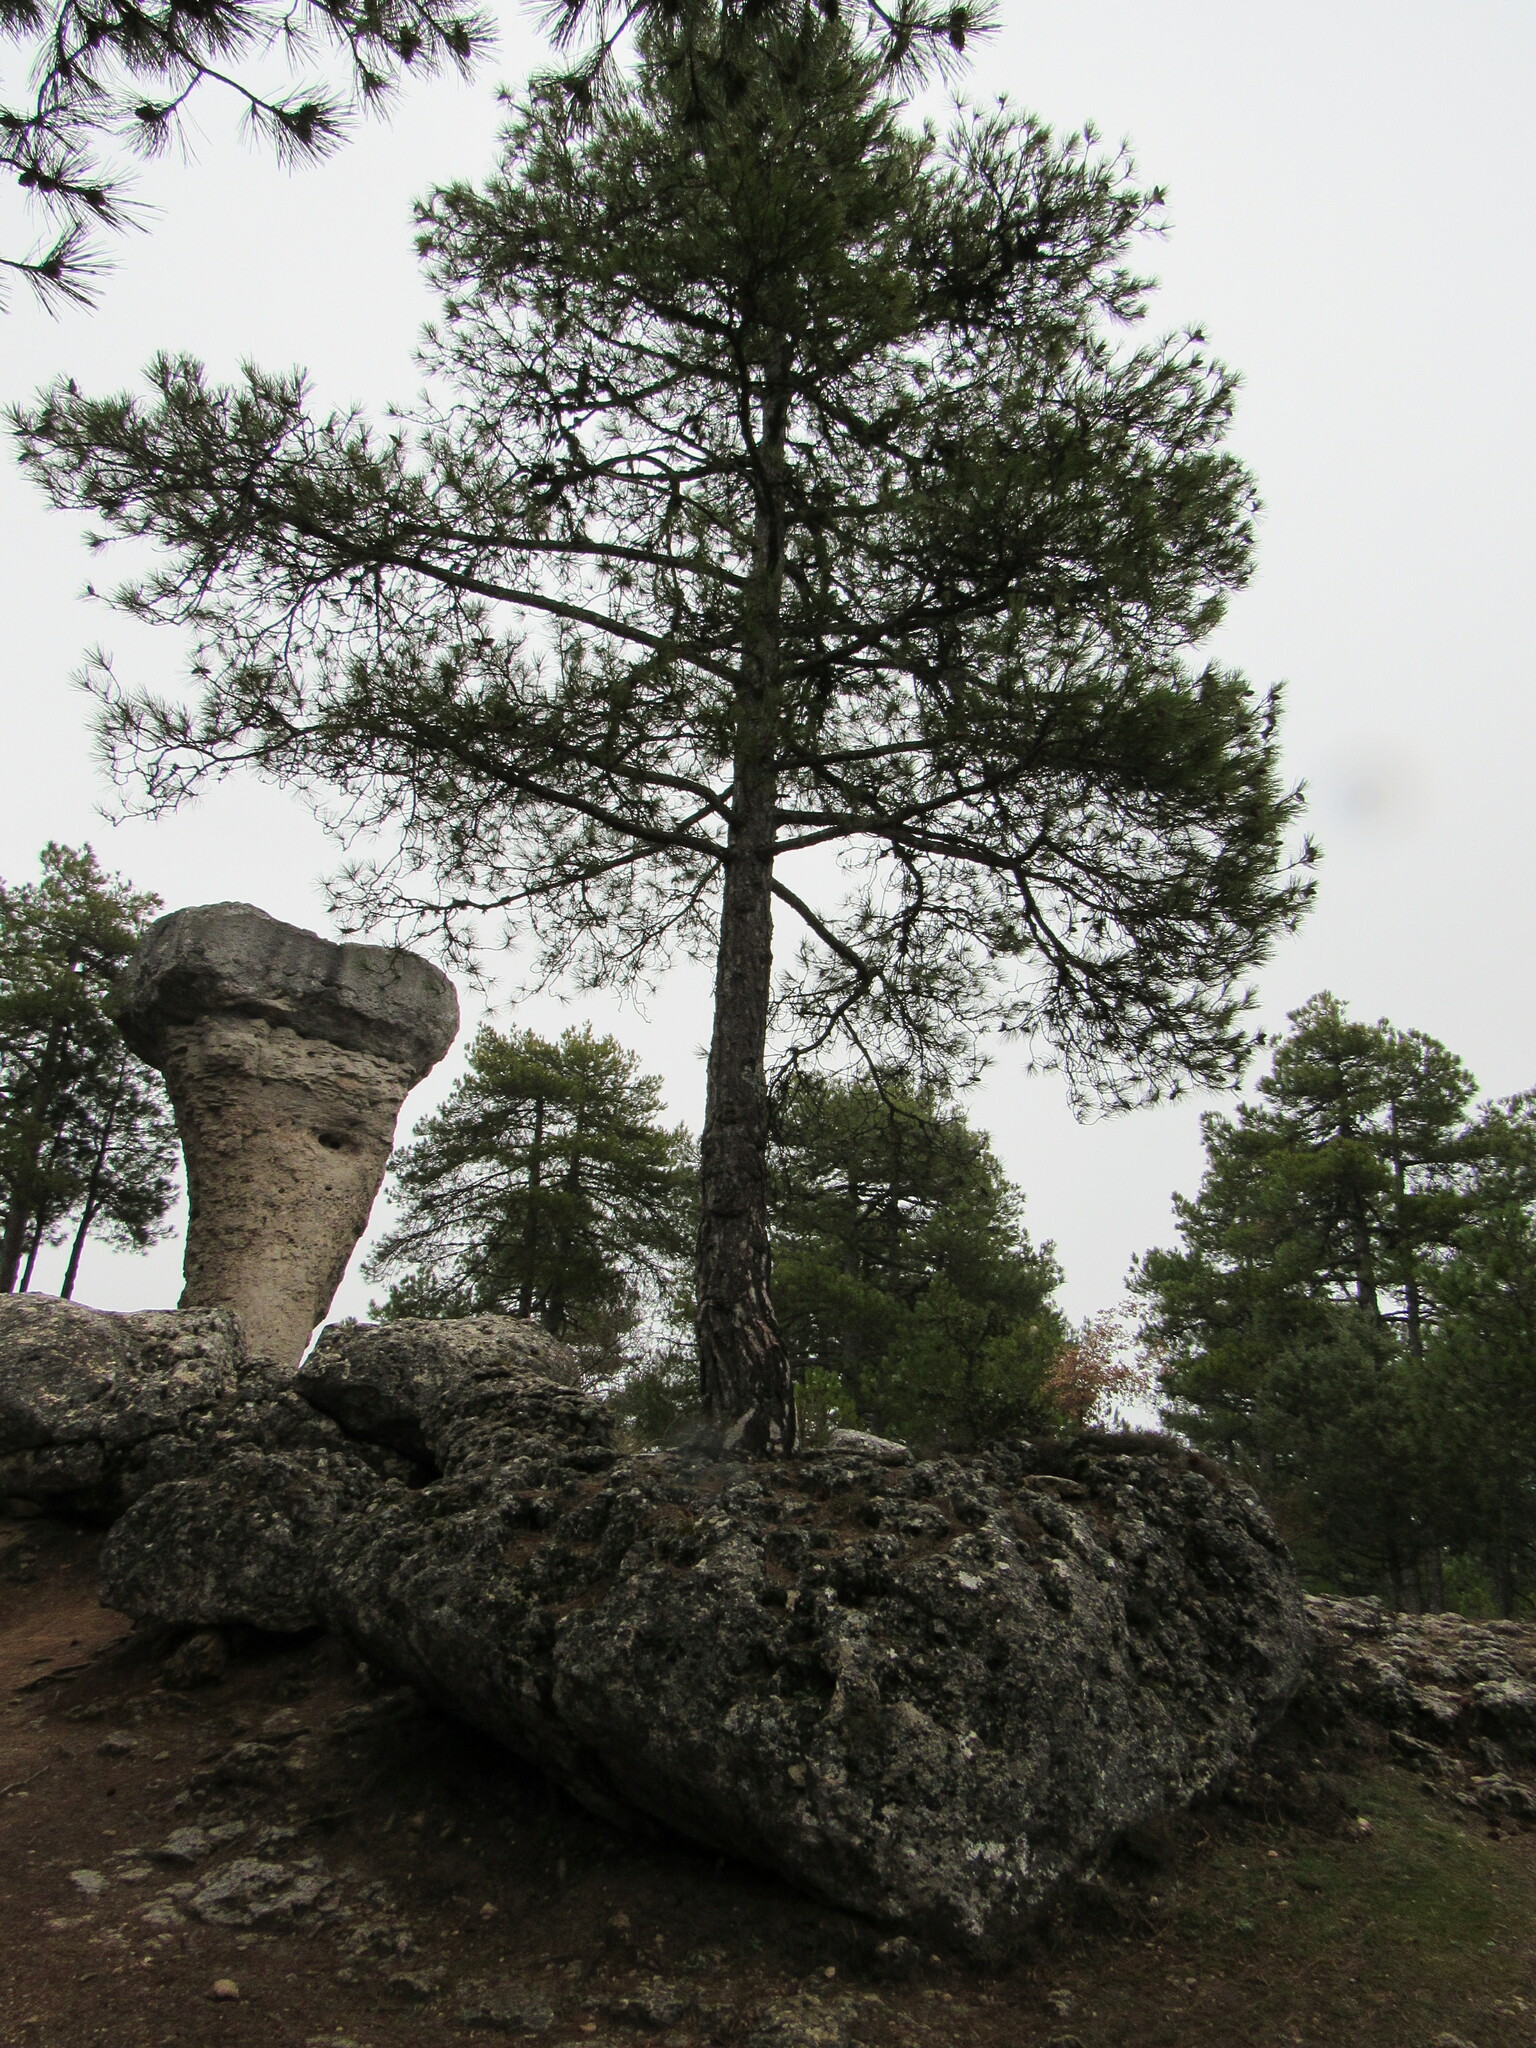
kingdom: Plantae
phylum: Tracheophyta
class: Pinopsida
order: Pinales
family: Pinaceae
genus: Pinus
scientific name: Pinus nigra
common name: Austrian pine
